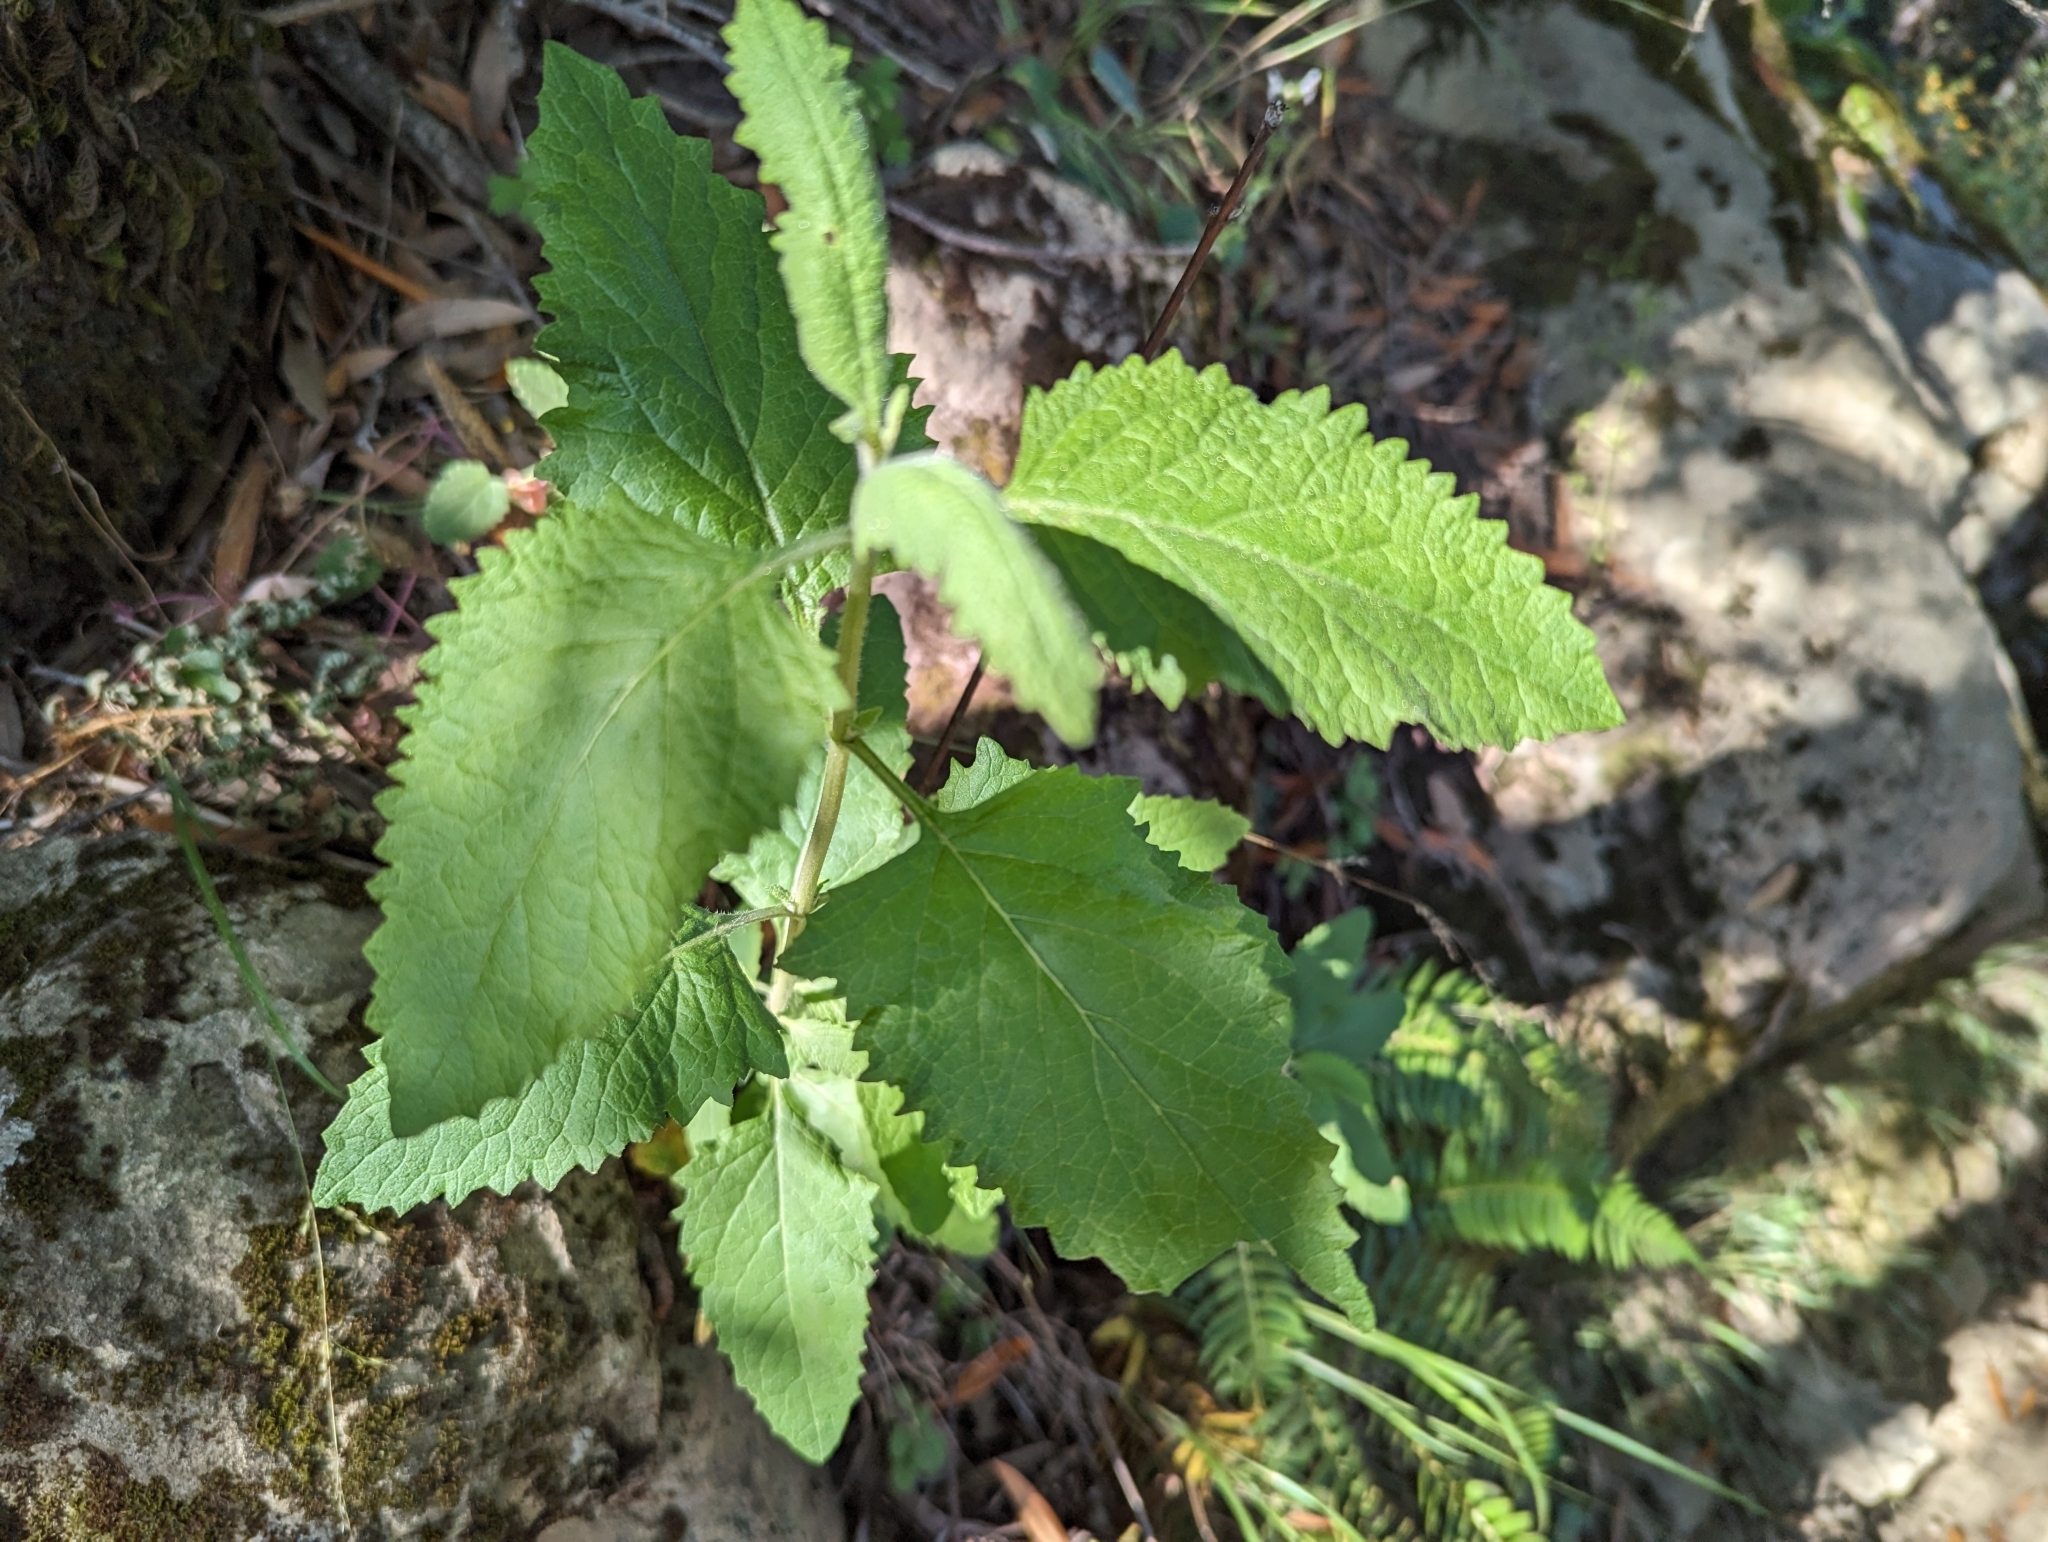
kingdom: Plantae
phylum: Tracheophyta
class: Magnoliopsida
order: Lamiales
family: Lamiaceae
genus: Lepechinia
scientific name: Lepechinia calycina
